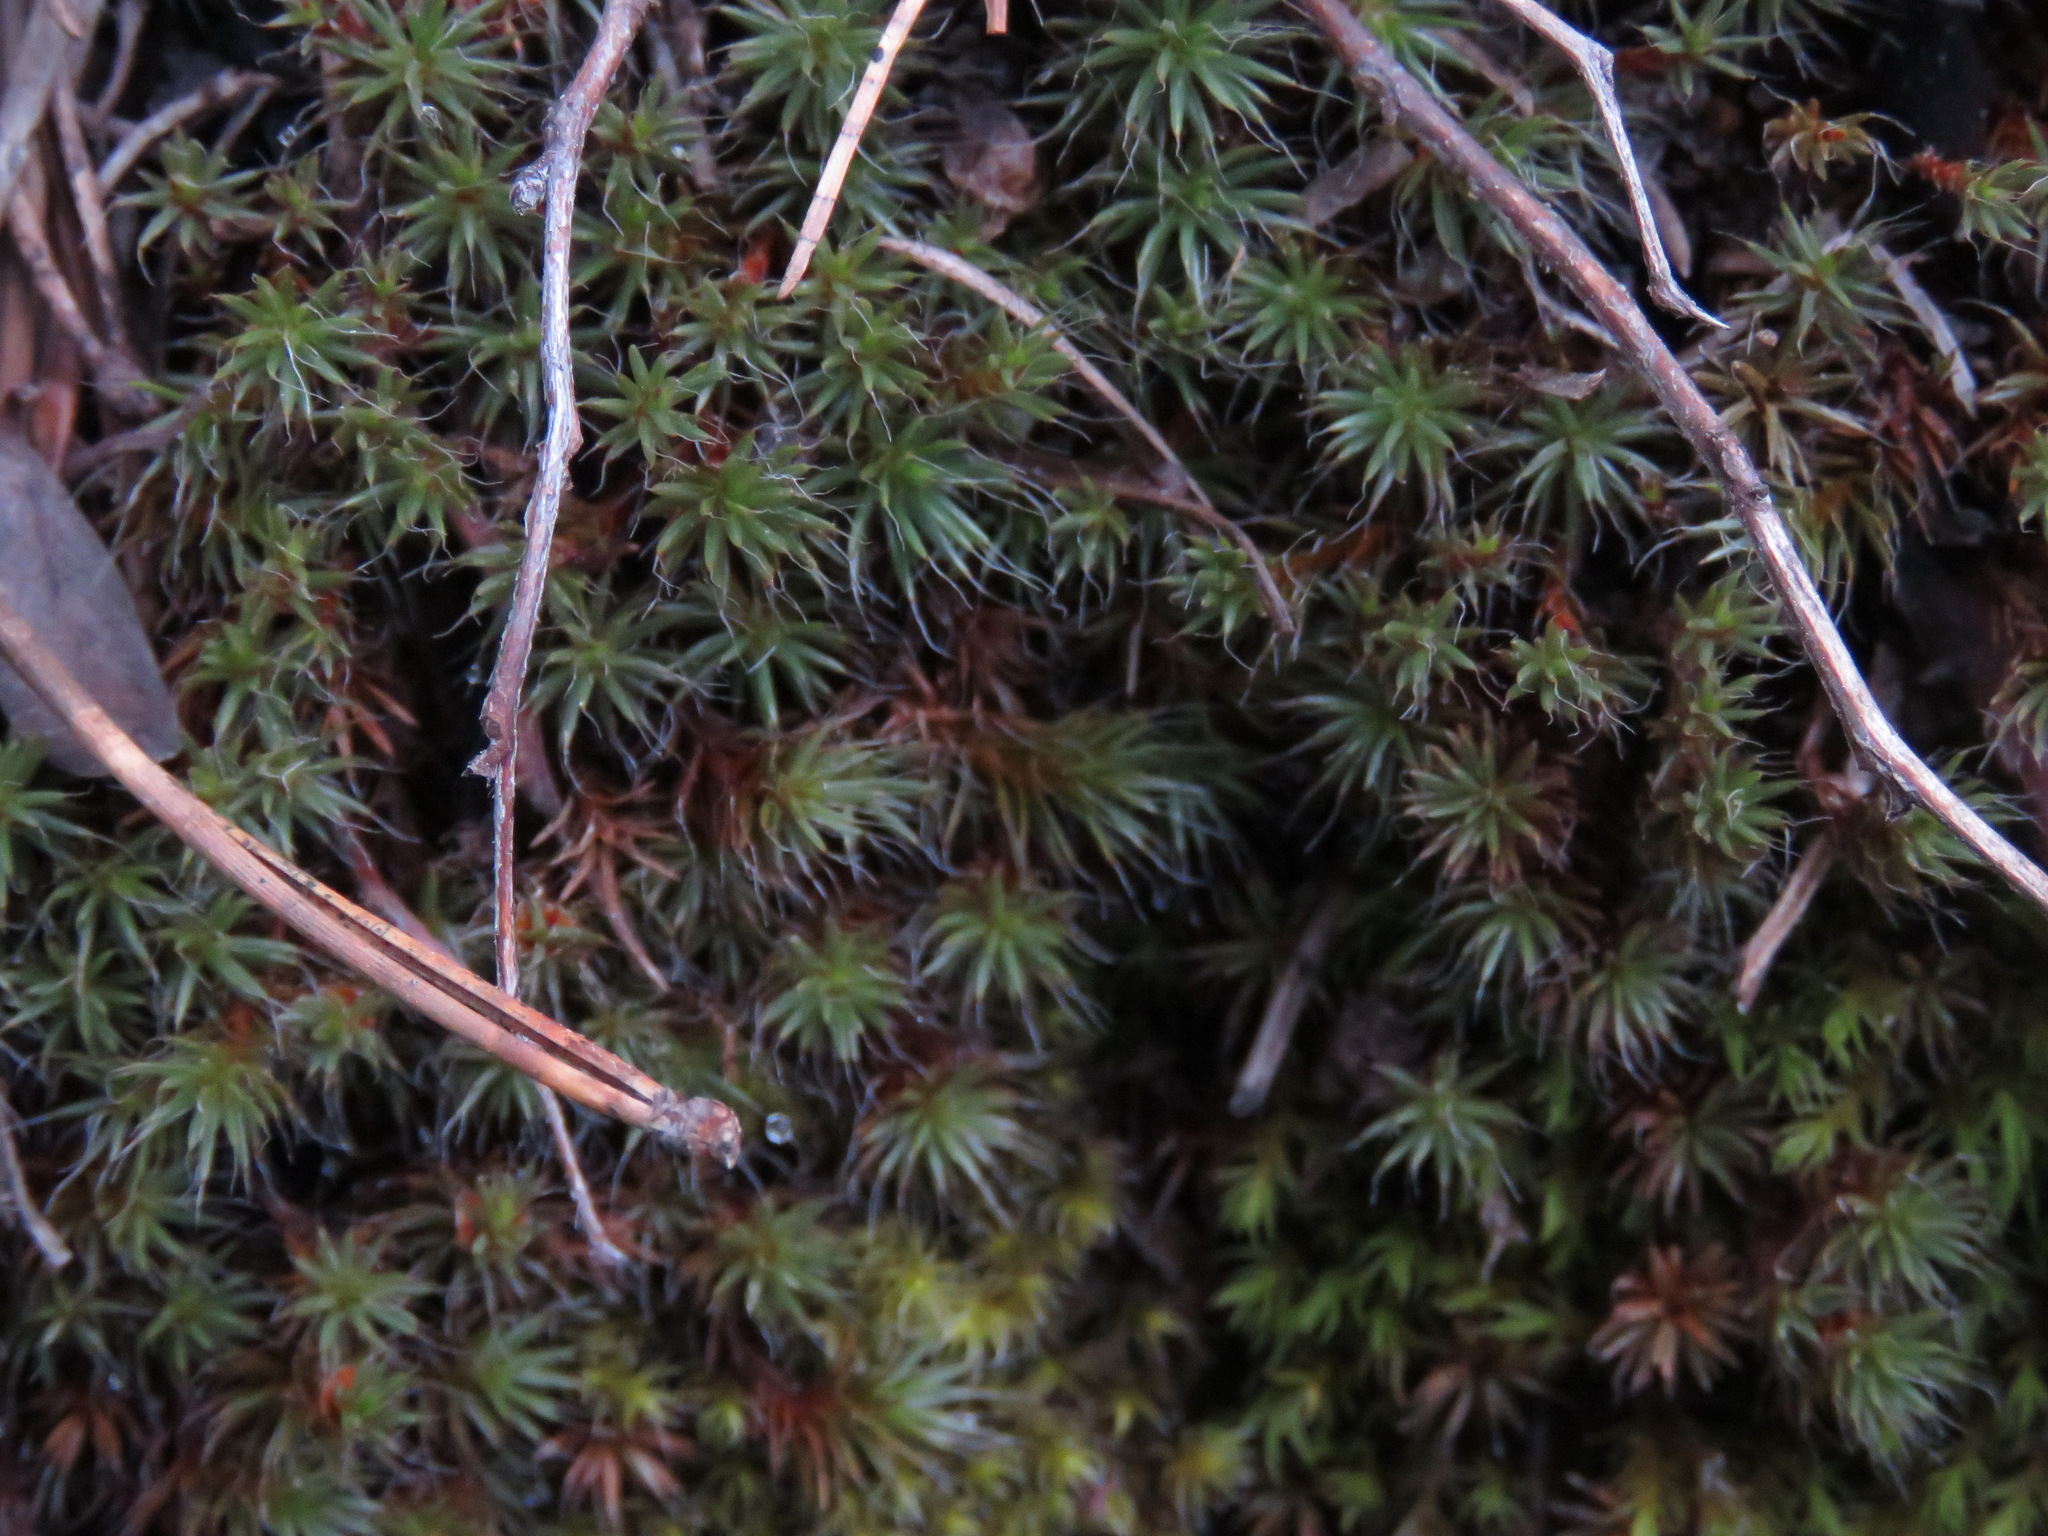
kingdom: Plantae
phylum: Bryophyta
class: Polytrichopsida
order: Polytrichales
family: Polytrichaceae
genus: Polytrichum
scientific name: Polytrichum piliferum
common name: Bristly haircap
